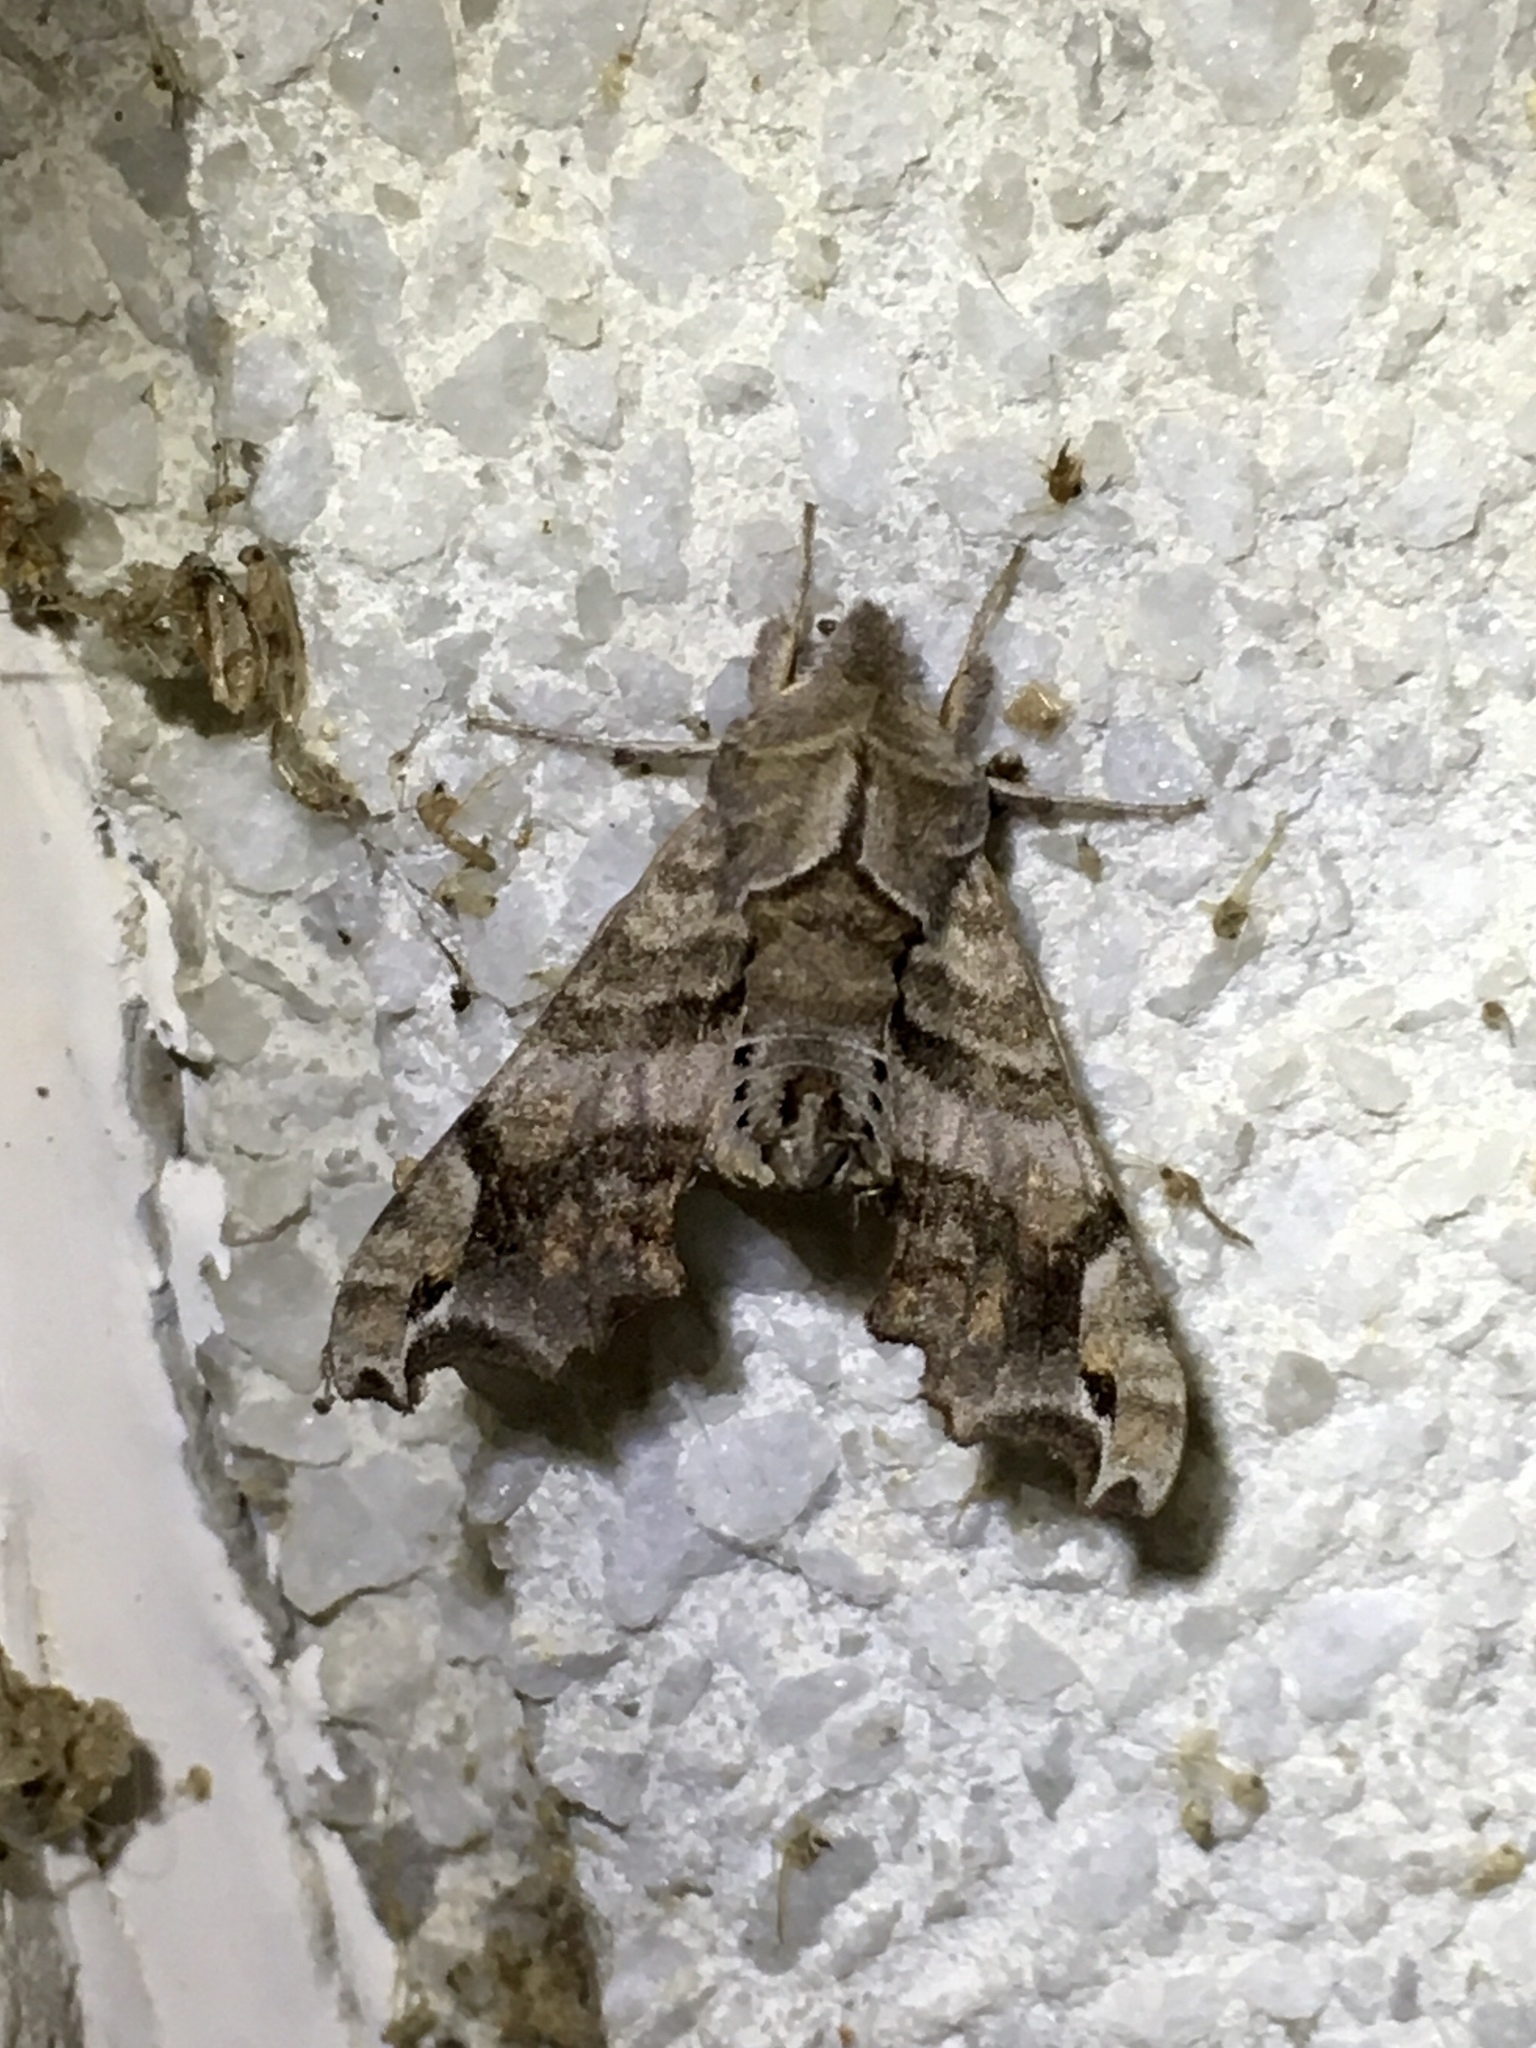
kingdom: Animalia
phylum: Arthropoda
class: Insecta
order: Lepidoptera
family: Sphingidae
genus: Deidamia
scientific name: Deidamia inscriptum
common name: Lettered sphinx
